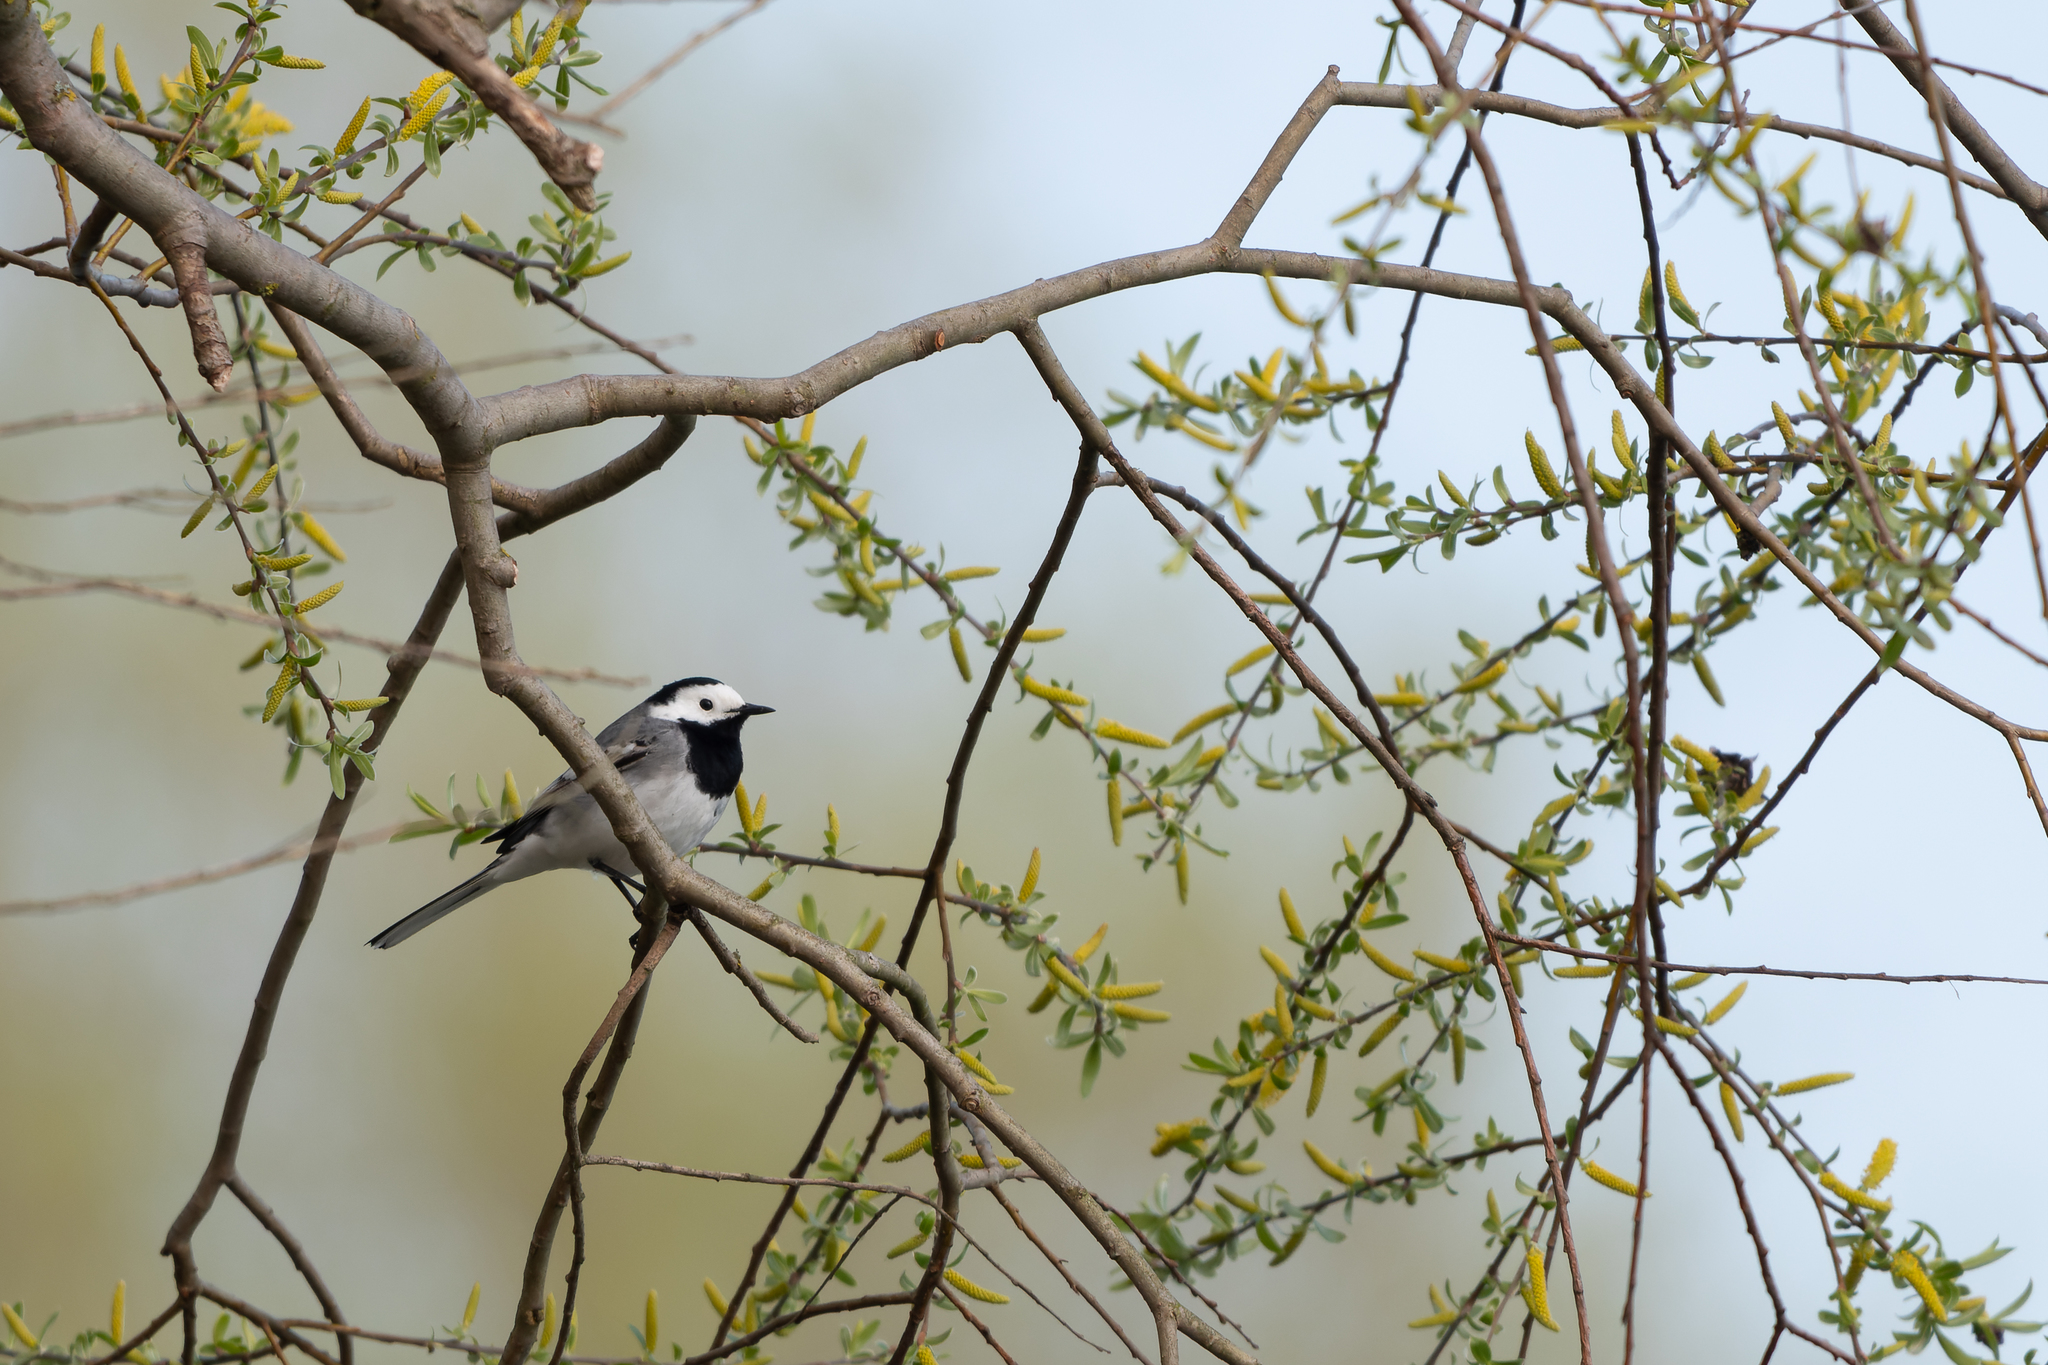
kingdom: Animalia
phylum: Chordata
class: Aves
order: Passeriformes
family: Motacillidae
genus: Motacilla
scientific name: Motacilla alba
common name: White wagtail
